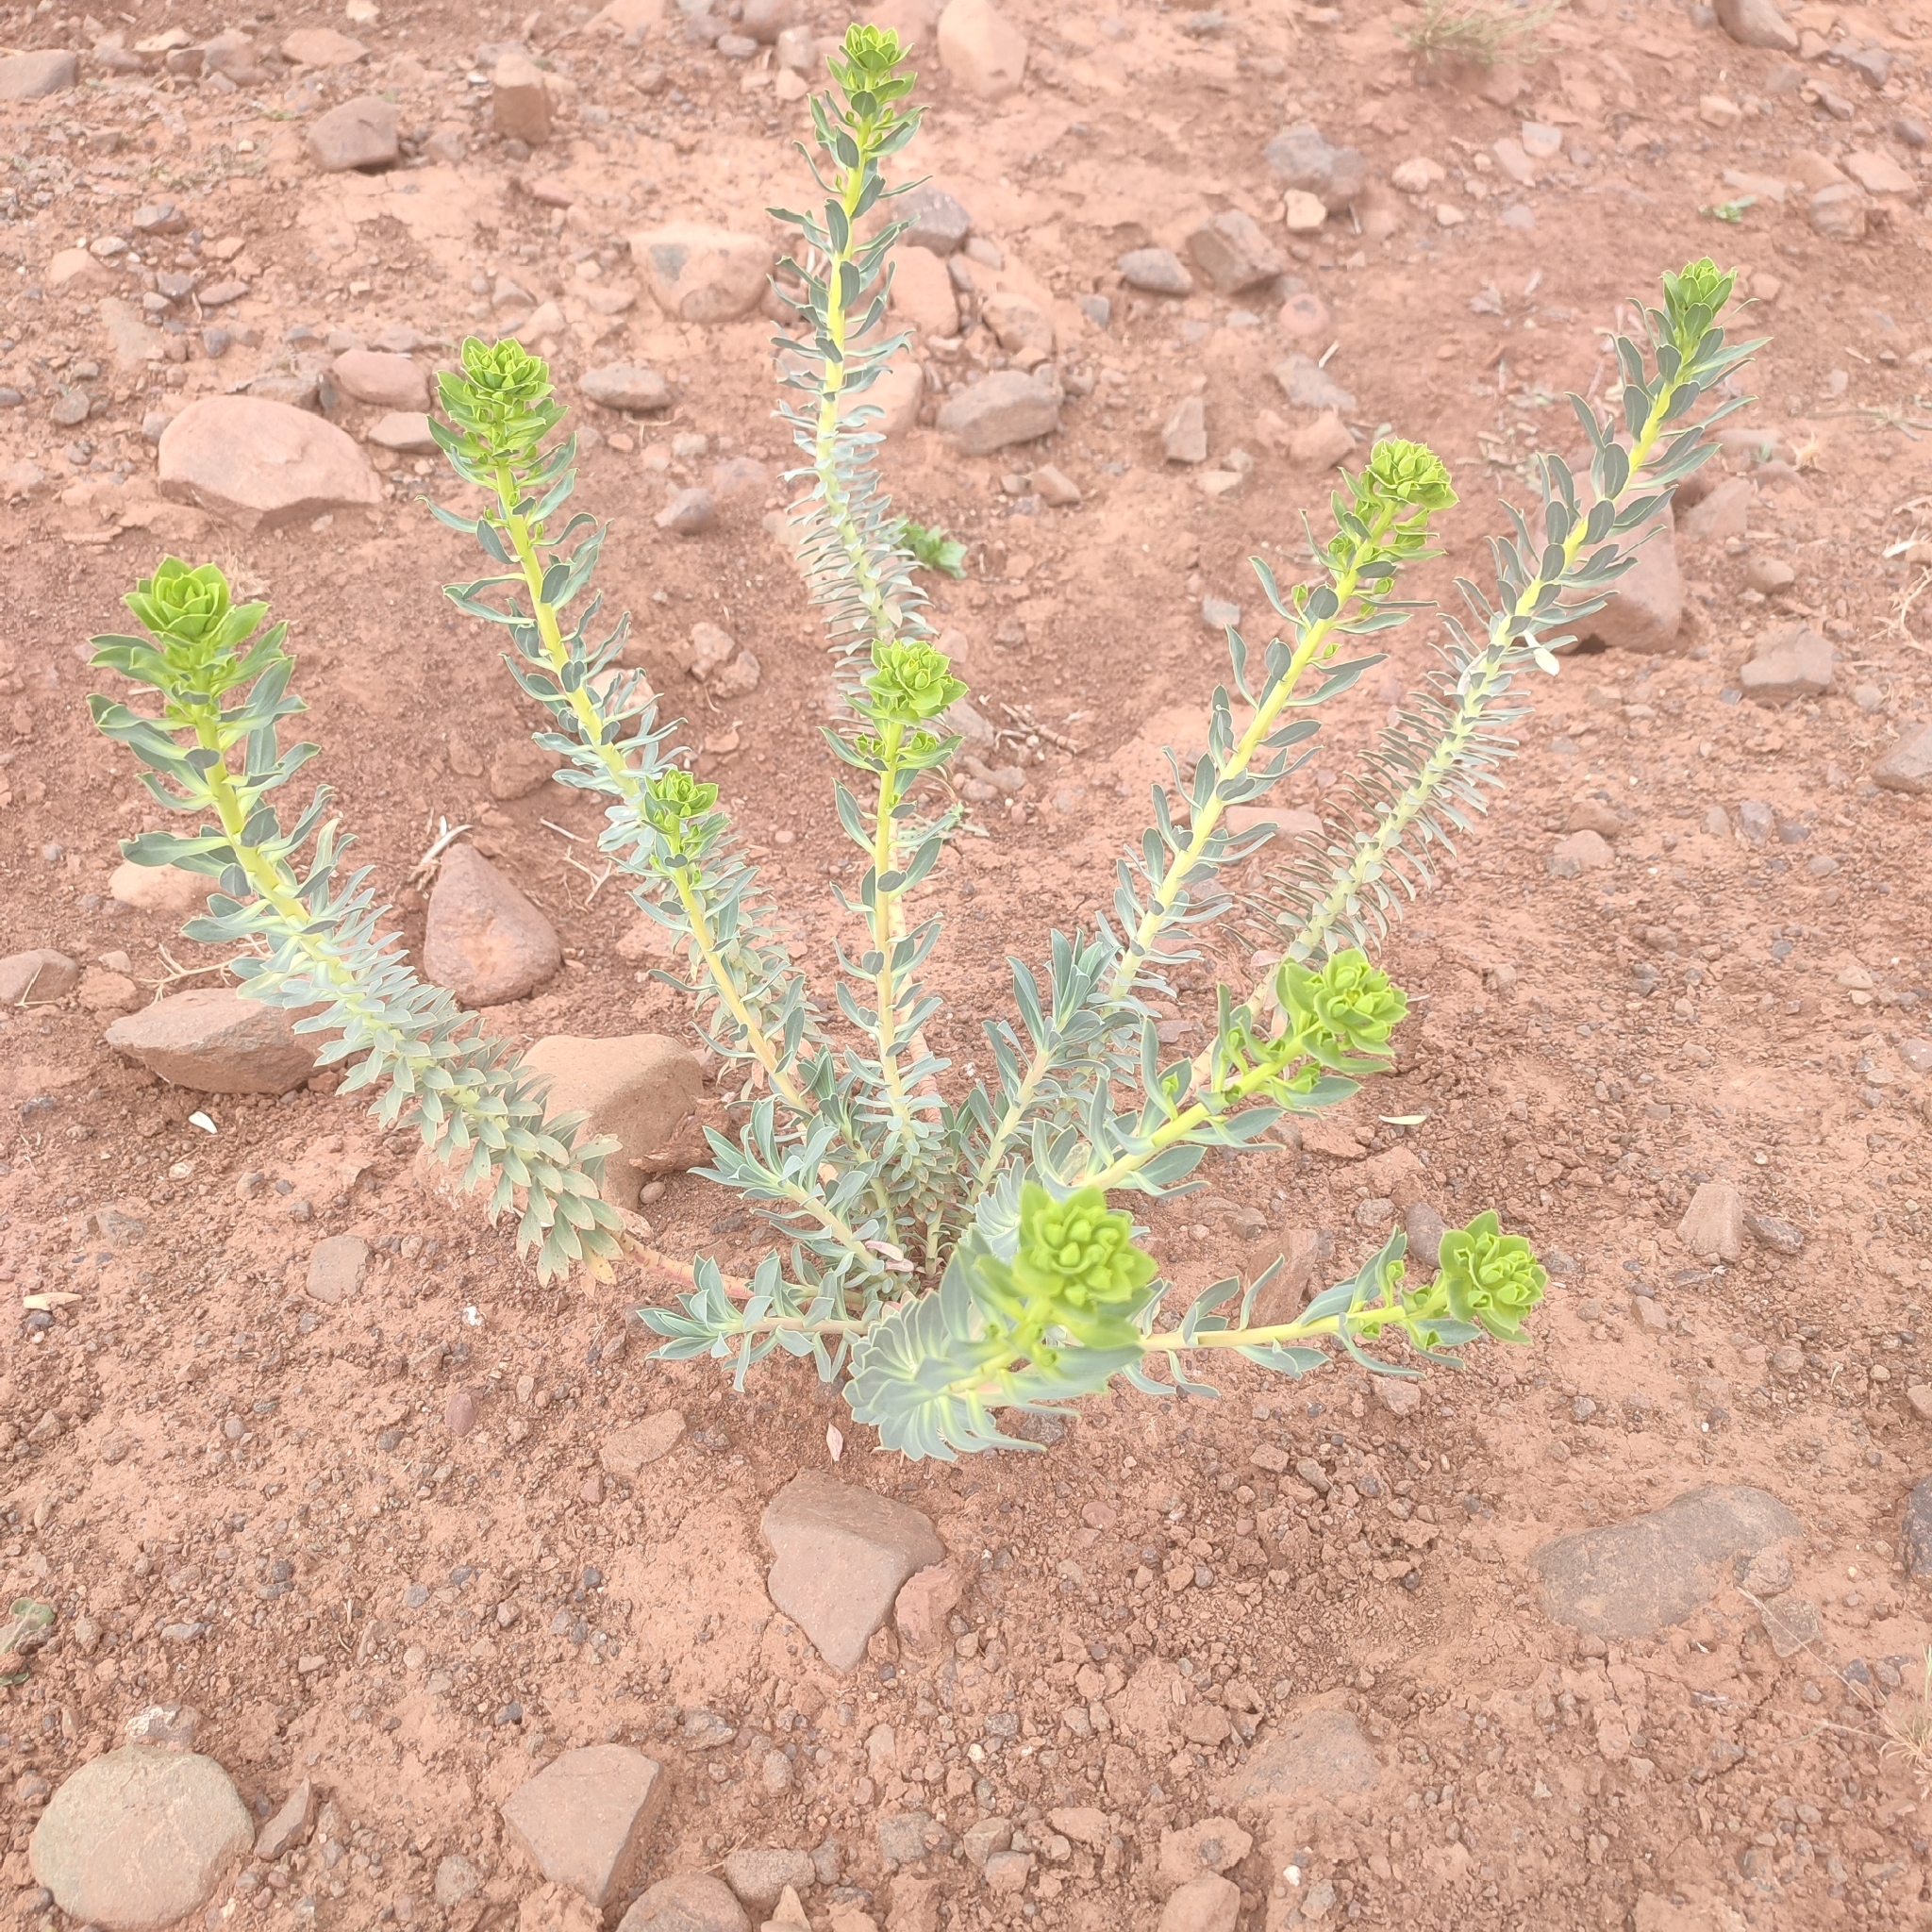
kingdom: Plantae
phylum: Tracheophyta
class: Magnoliopsida
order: Malpighiales
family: Euphorbiaceae
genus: Euphorbia
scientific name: Euphorbia nicaeensis
